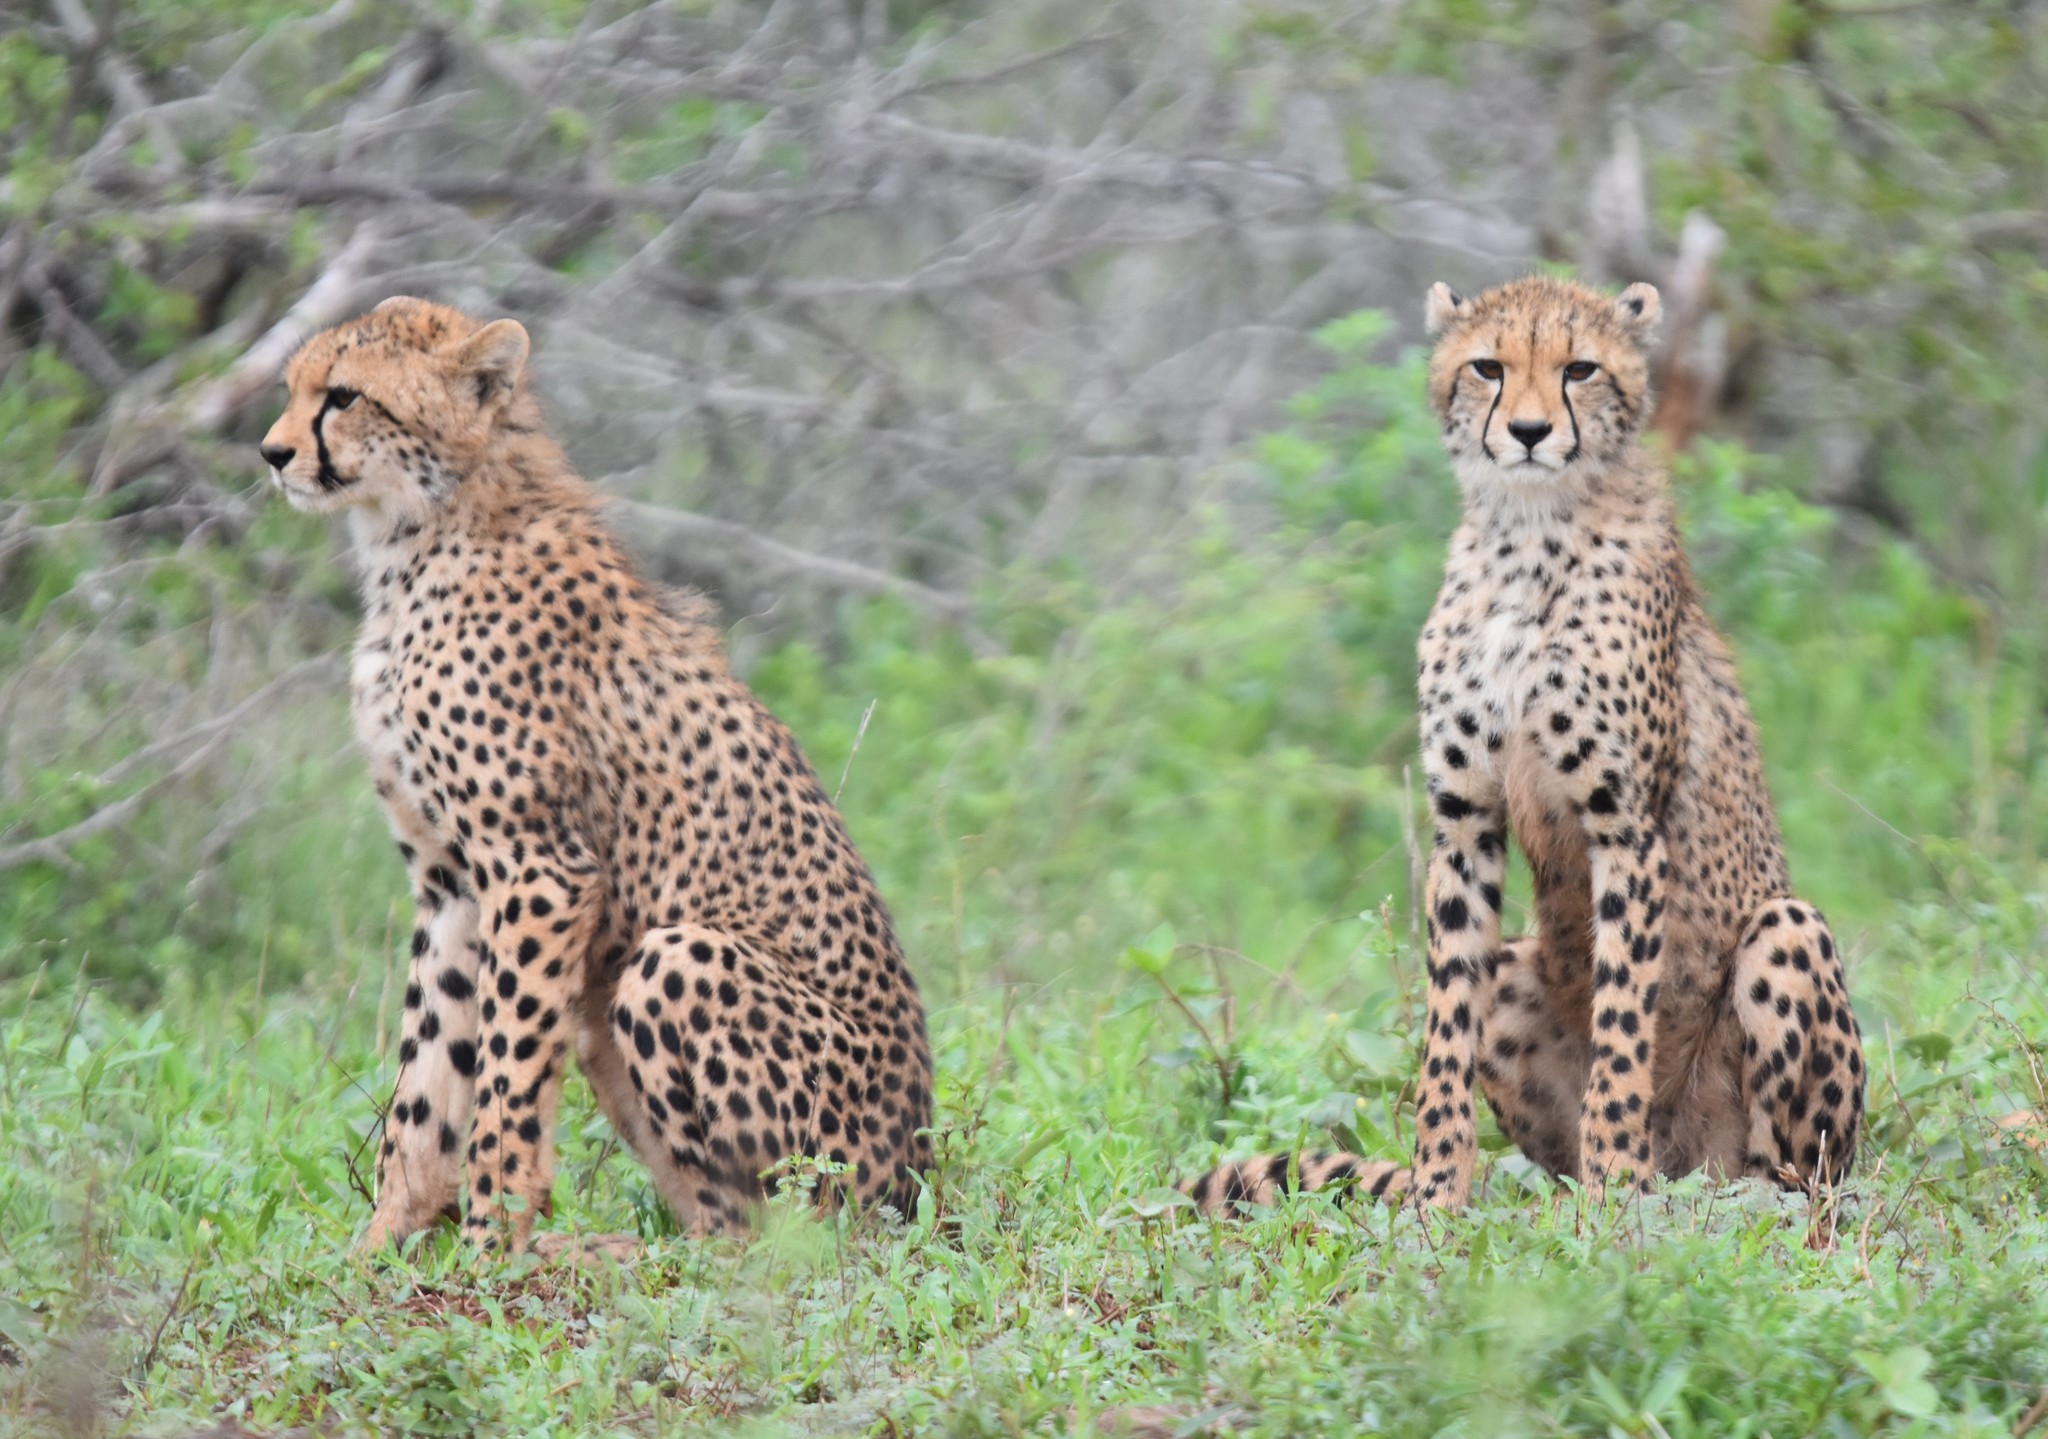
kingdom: Animalia
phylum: Chordata
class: Mammalia
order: Carnivora
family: Felidae
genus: Acinonyx
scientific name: Acinonyx jubatus
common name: Cheetah
